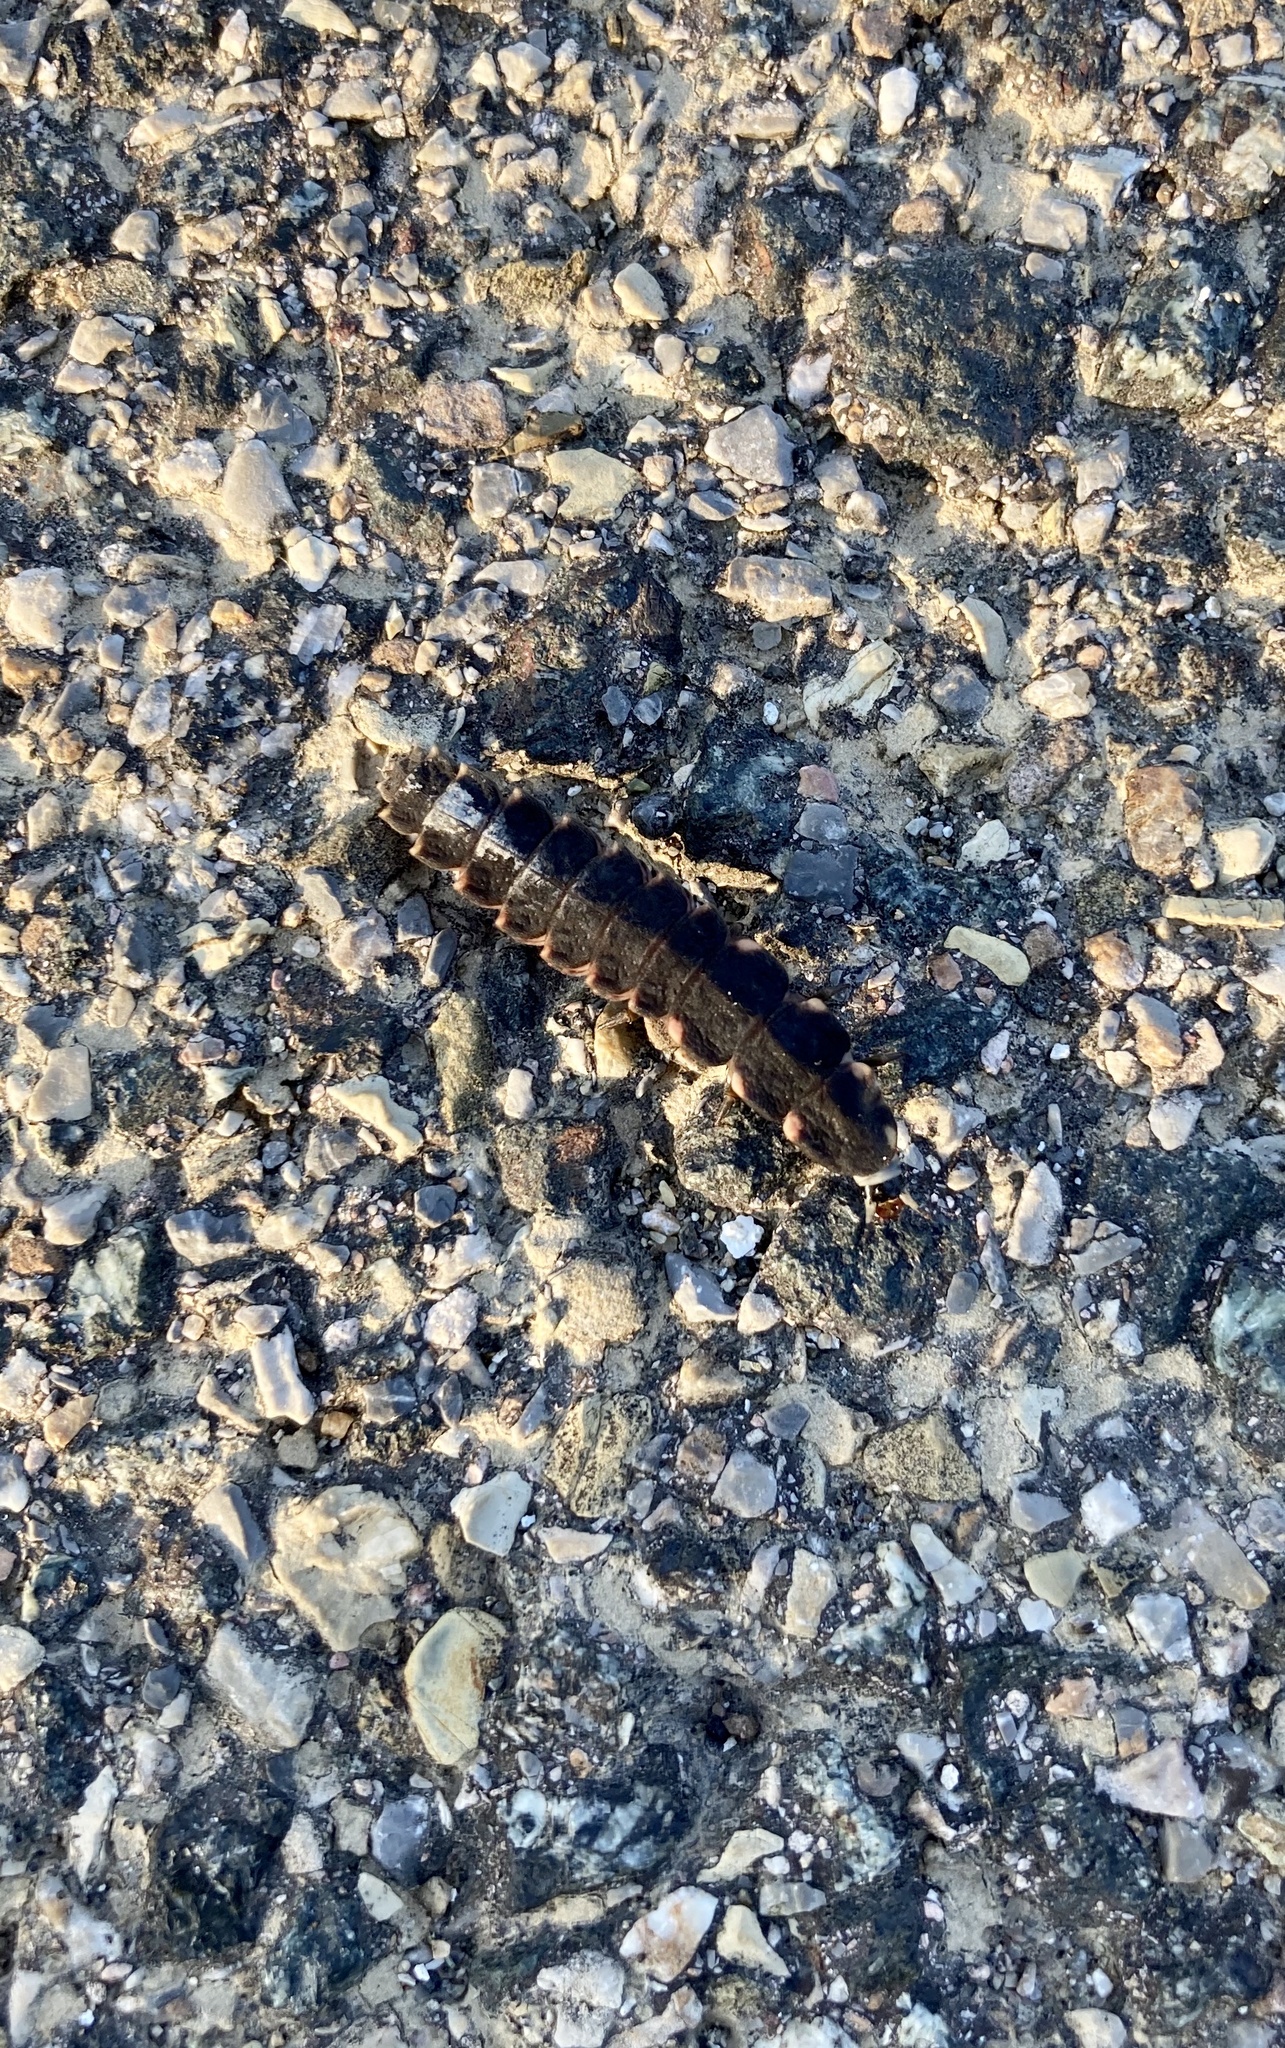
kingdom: Animalia
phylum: Arthropoda
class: Insecta
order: Coleoptera
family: Lampyridae
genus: Lampyris
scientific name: Lampyris
